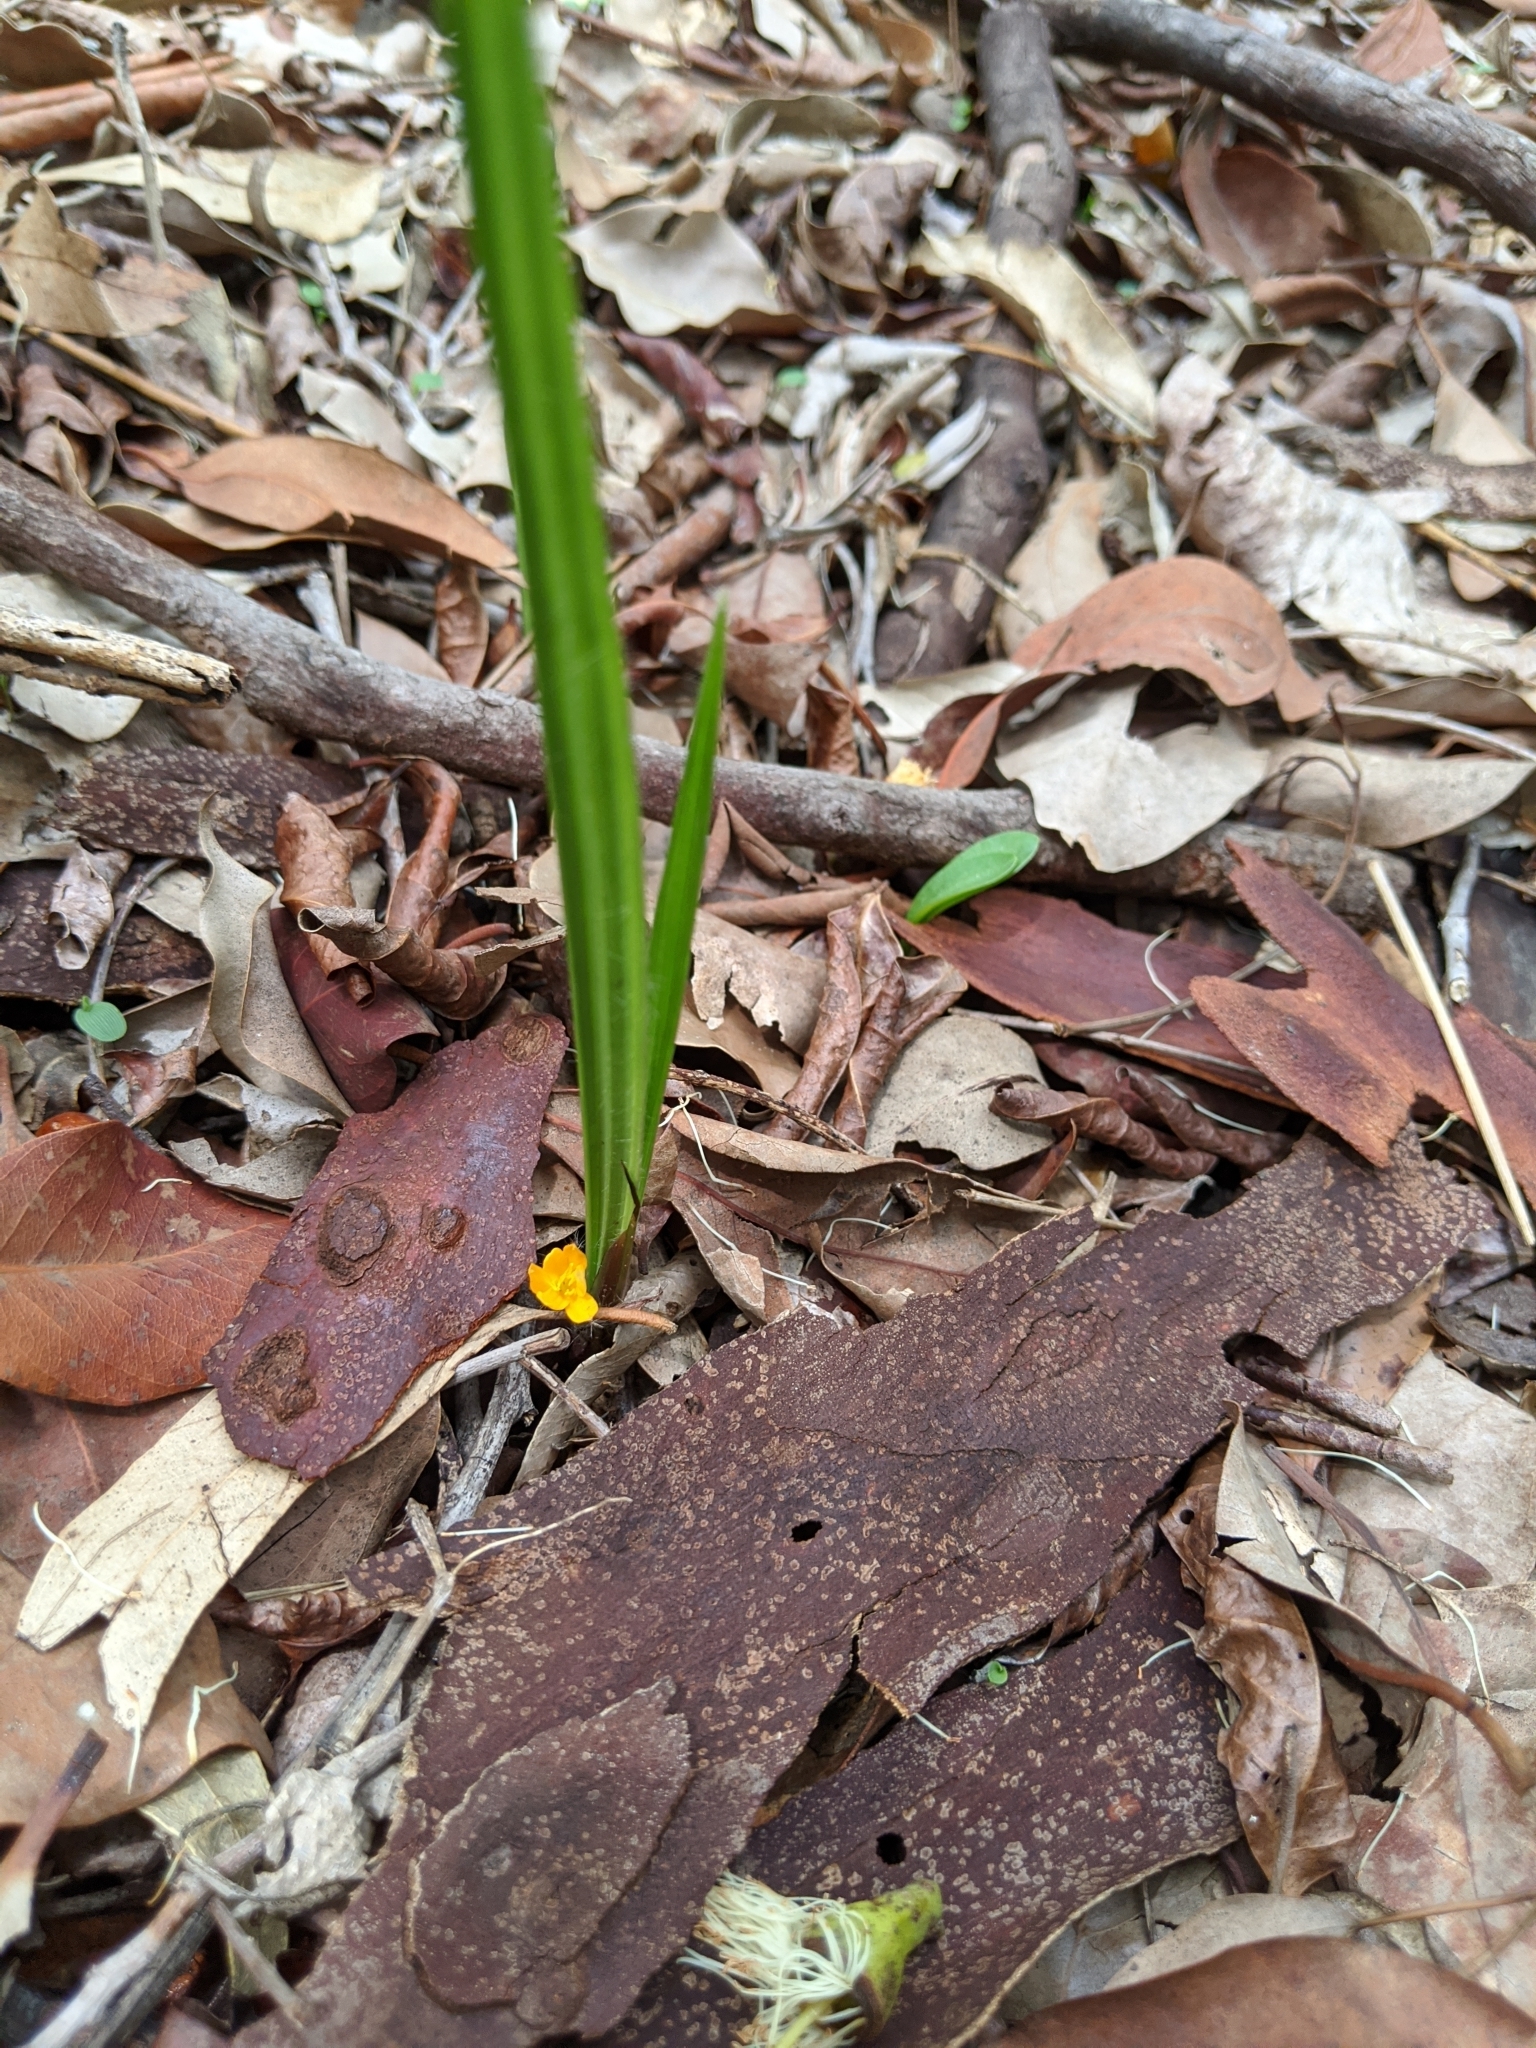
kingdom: Plantae
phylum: Tracheophyta
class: Liliopsida
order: Asparagales
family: Hypoxidaceae
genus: Curculigo
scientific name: Curculigo ensifolia
